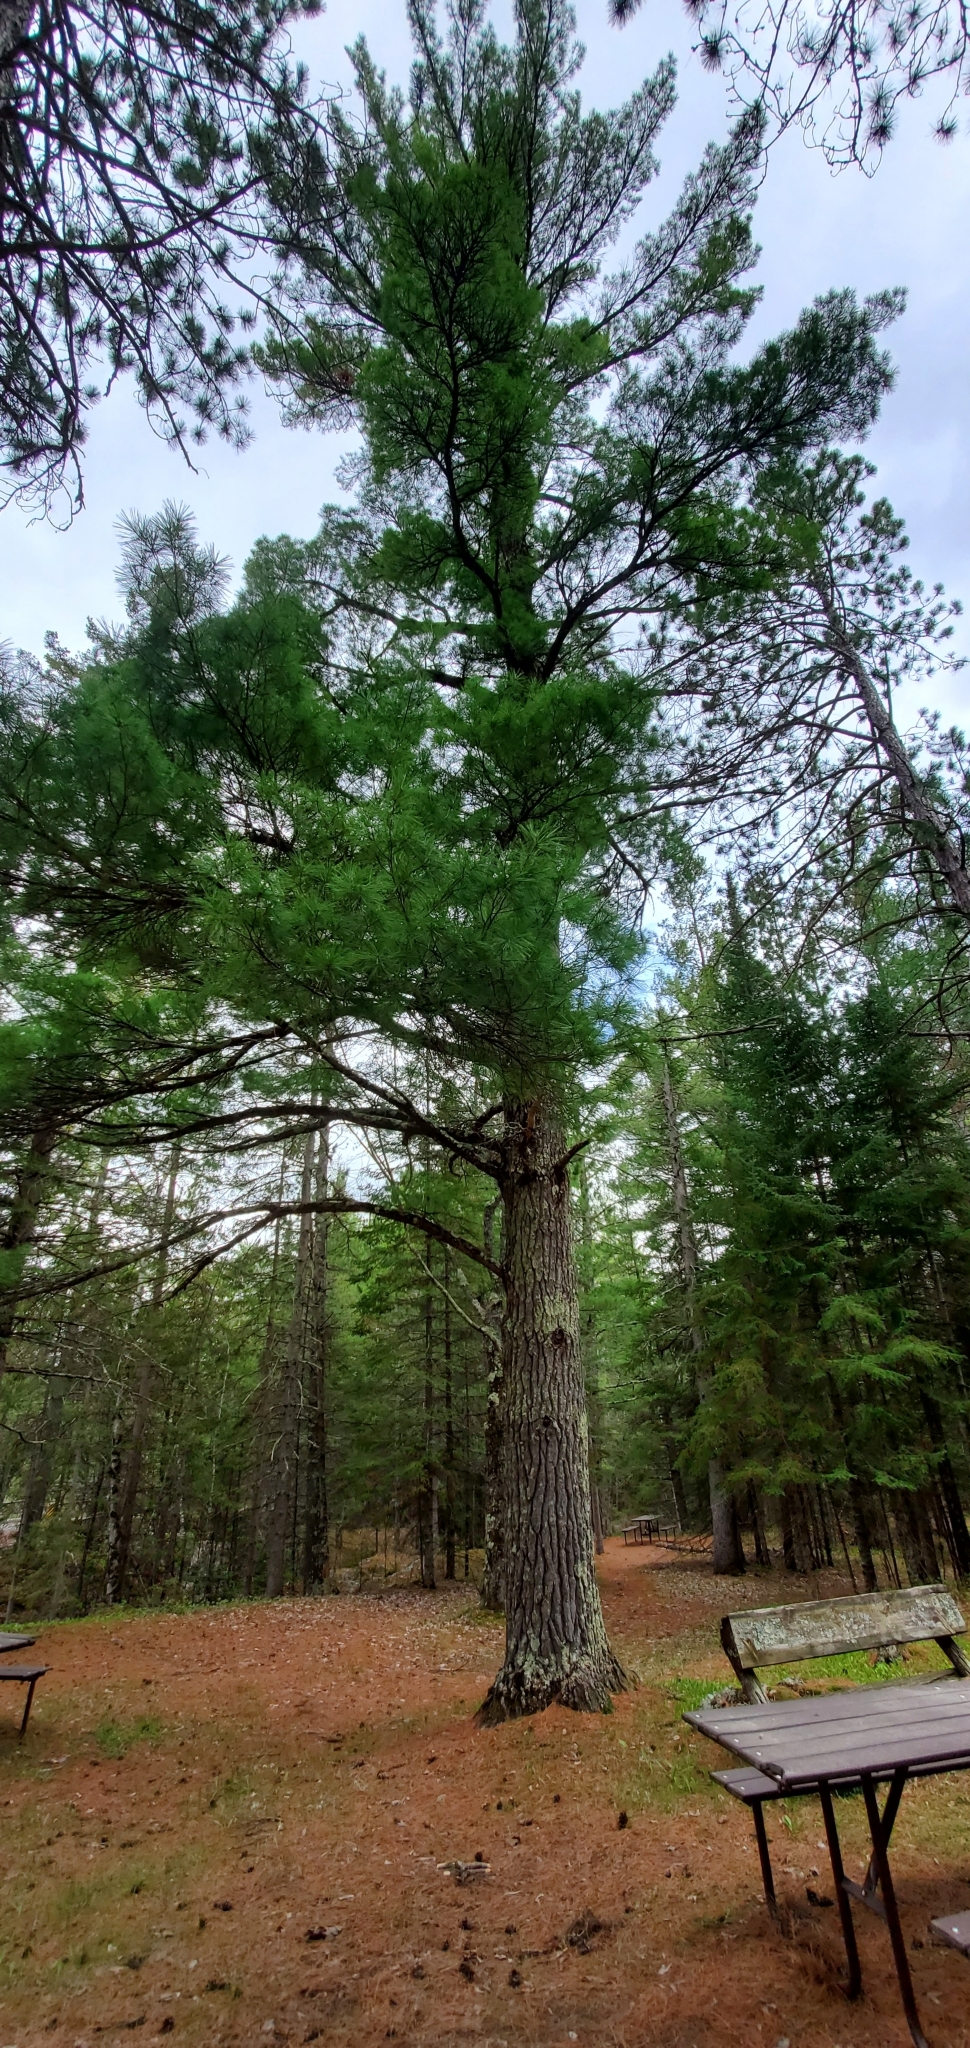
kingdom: Plantae
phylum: Tracheophyta
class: Pinopsida
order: Pinales
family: Pinaceae
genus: Pinus
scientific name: Pinus strobus
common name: Weymouth pine
